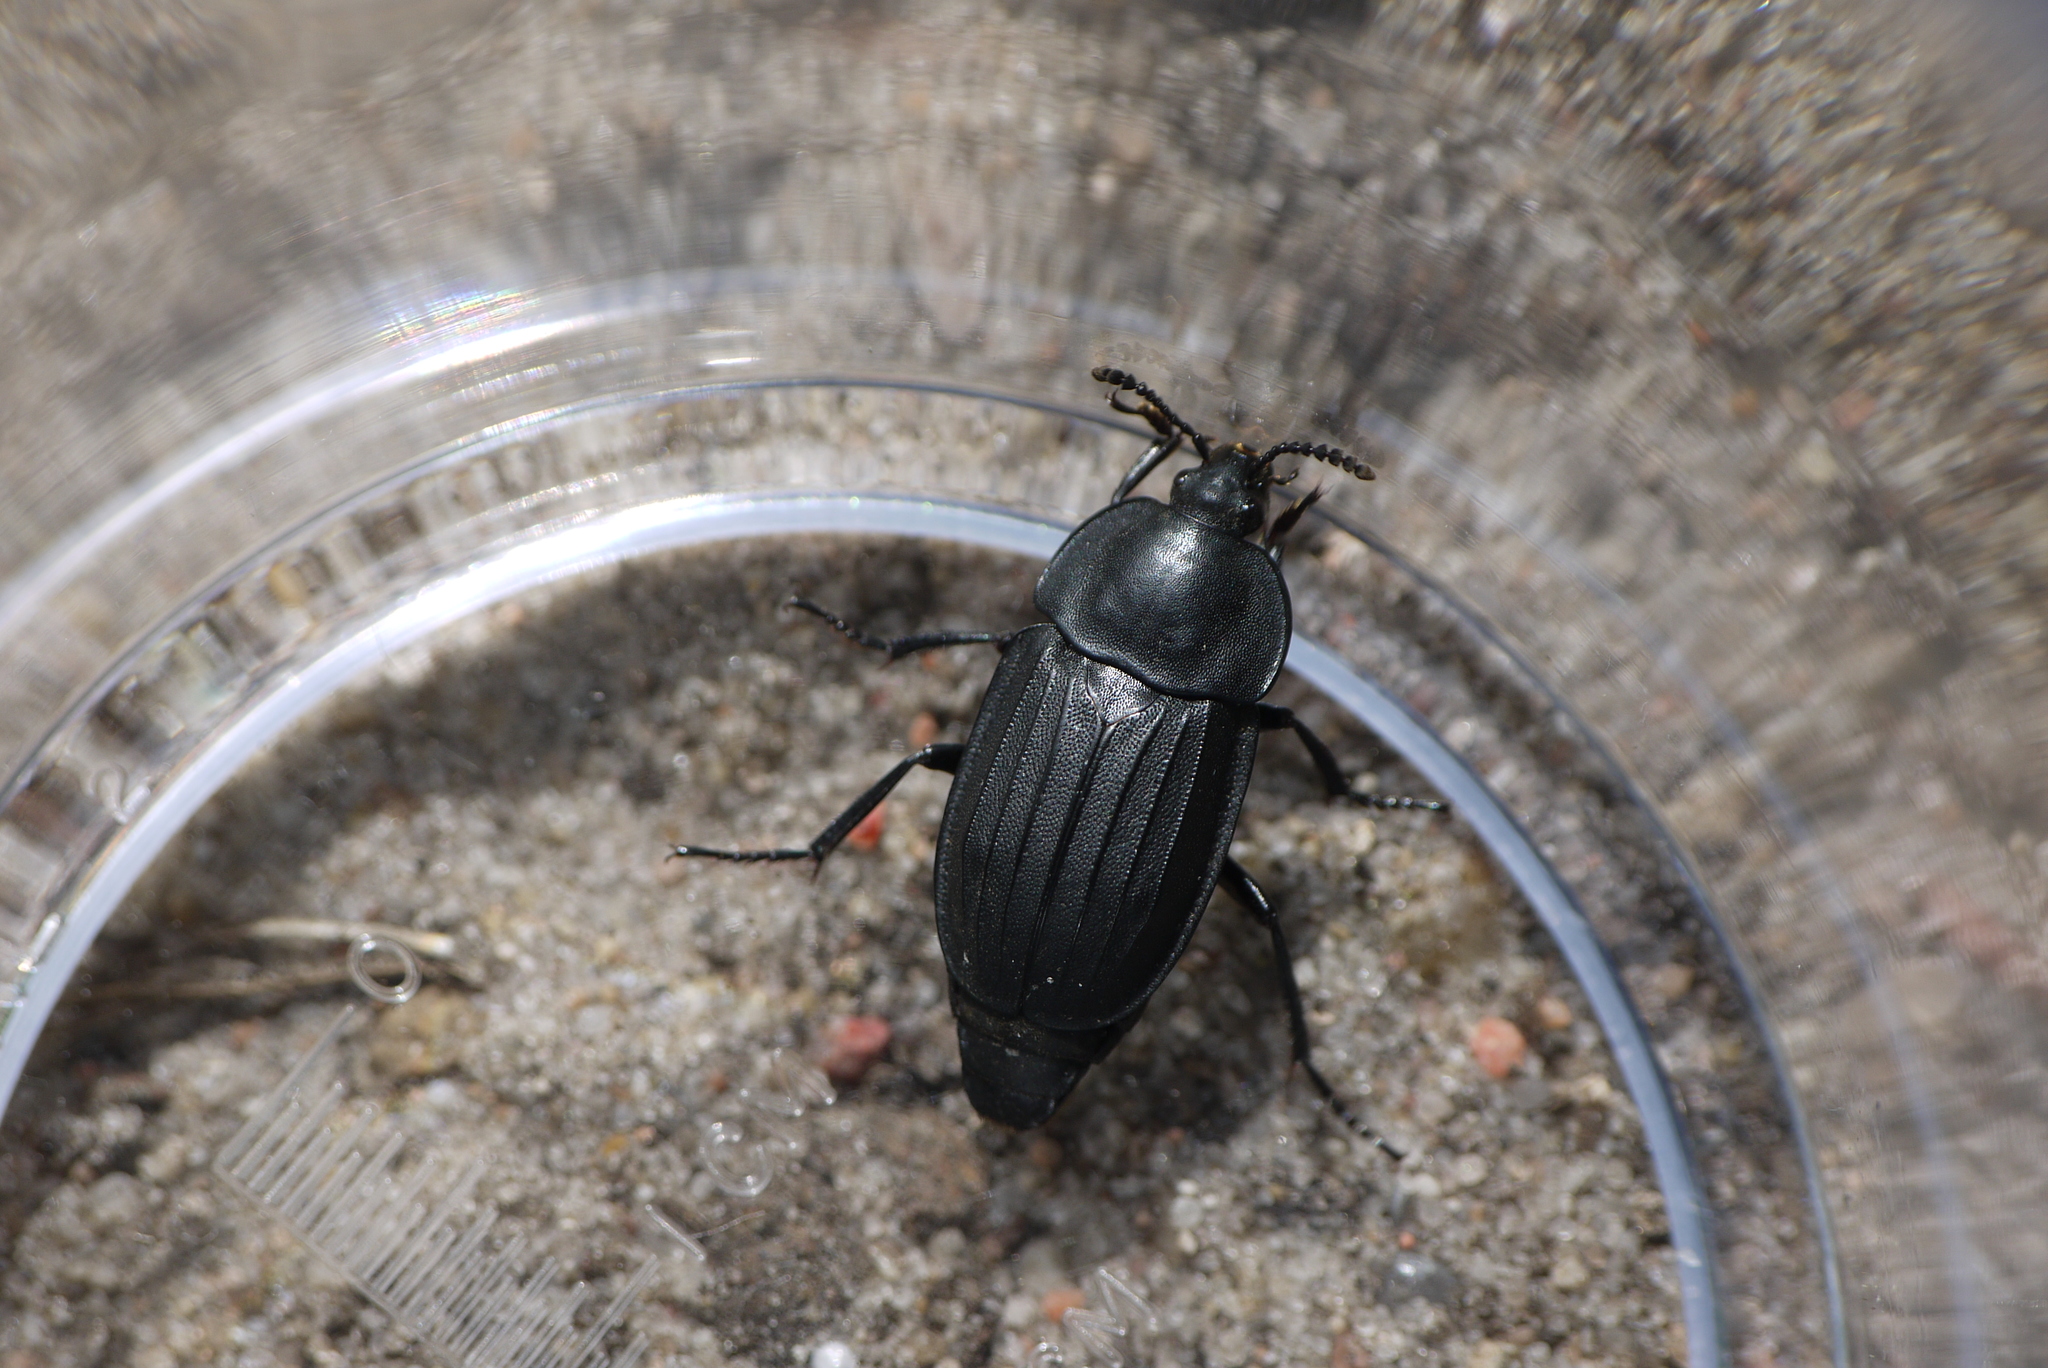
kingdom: Animalia
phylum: Arthropoda
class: Insecta
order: Coleoptera
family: Staphylinidae
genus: Silpha
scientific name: Silpha tristis
